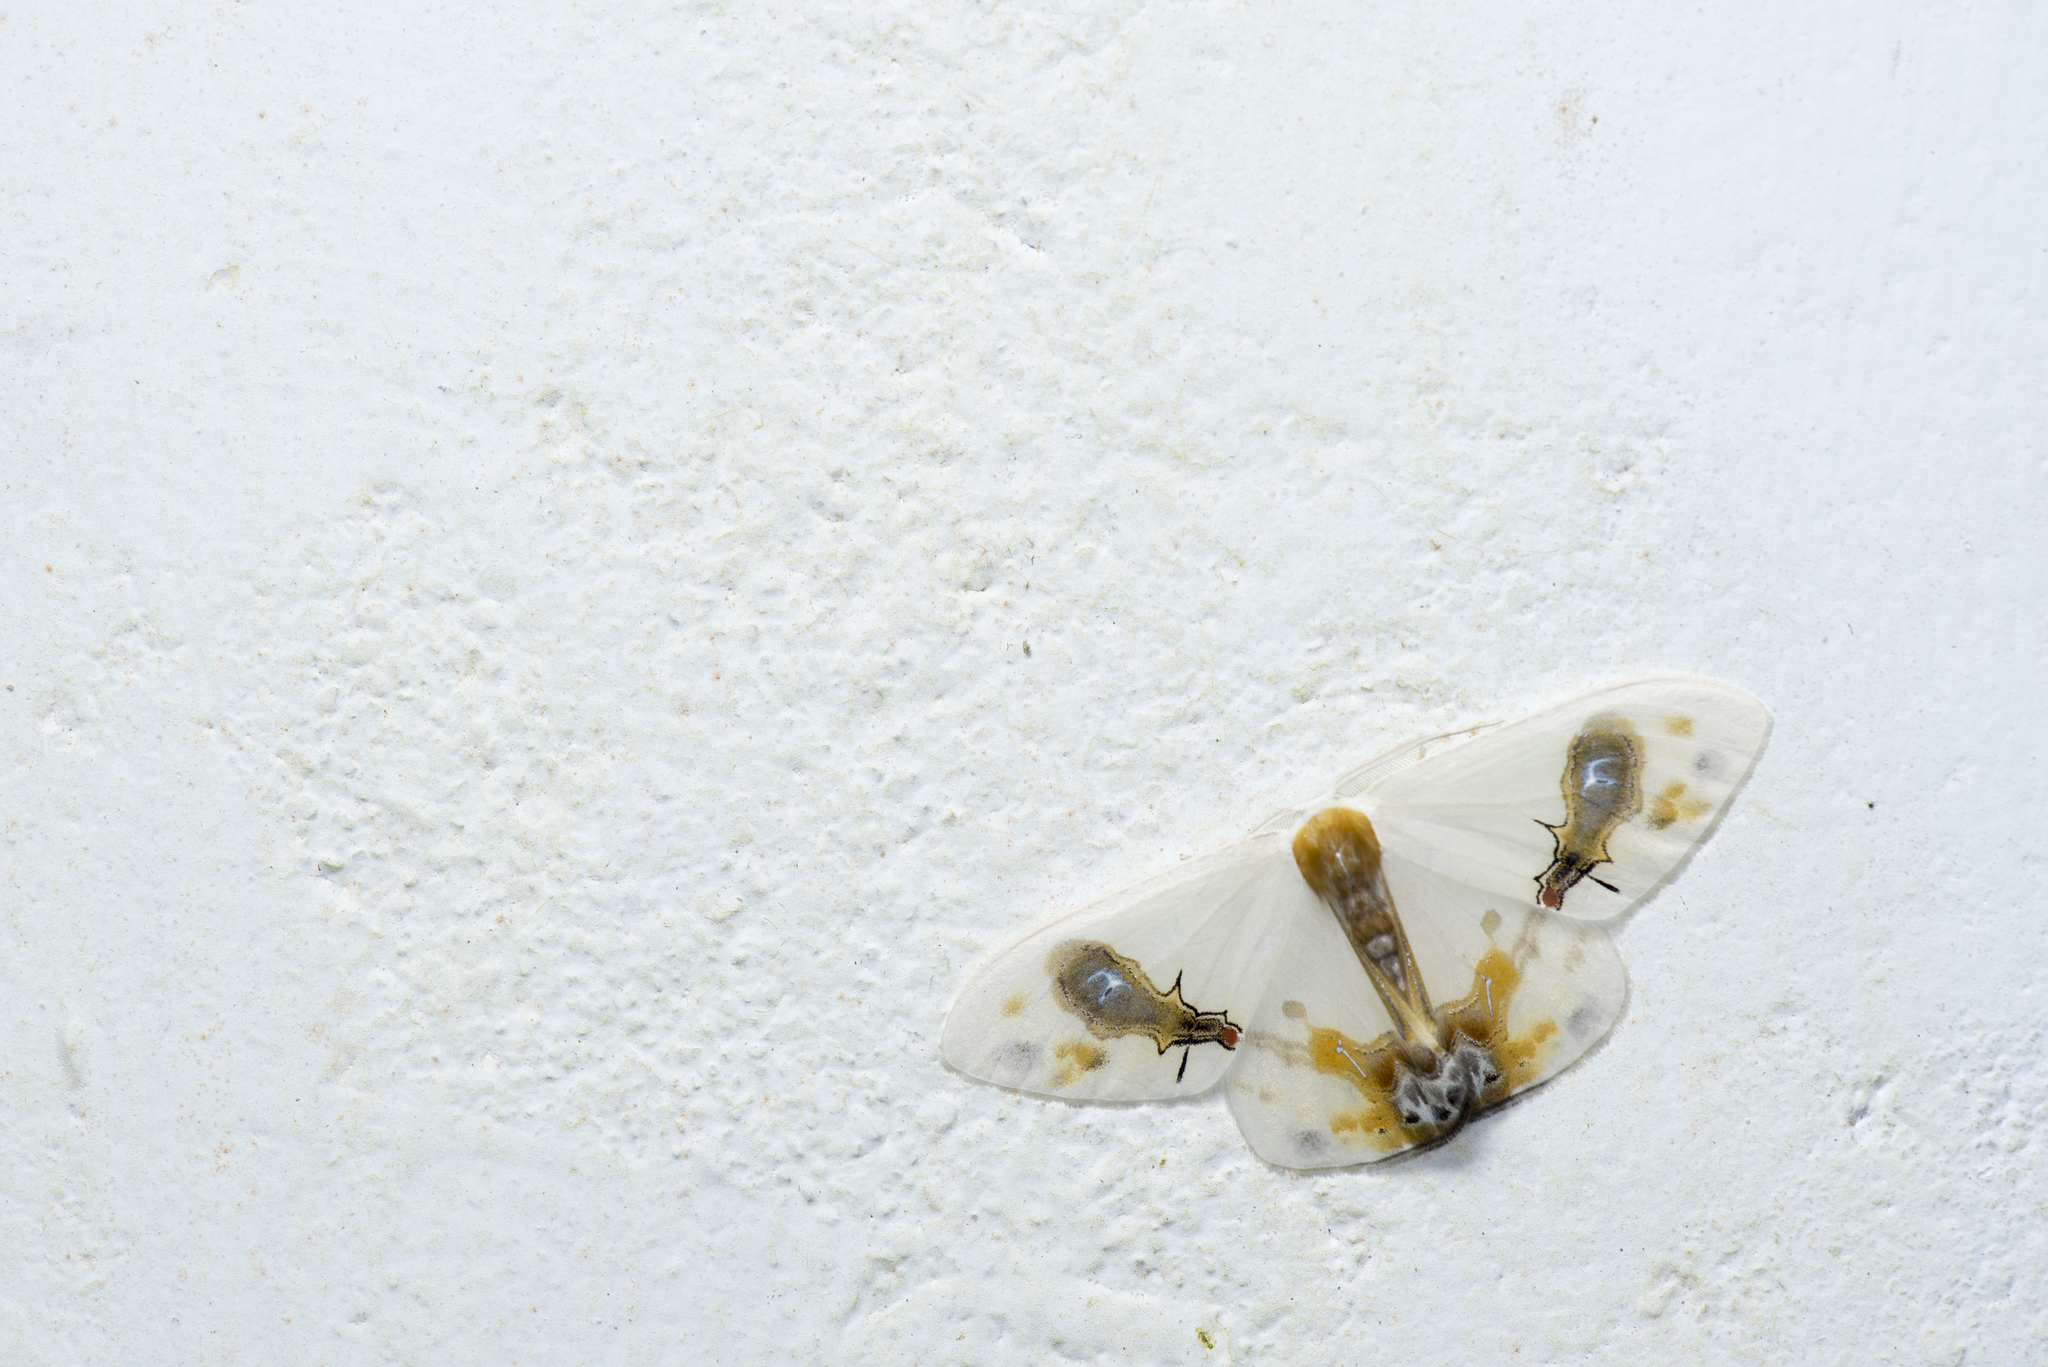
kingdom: Animalia
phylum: Arthropoda
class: Insecta
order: Lepidoptera
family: Drepanidae
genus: Macrocilix
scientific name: Macrocilix maia
